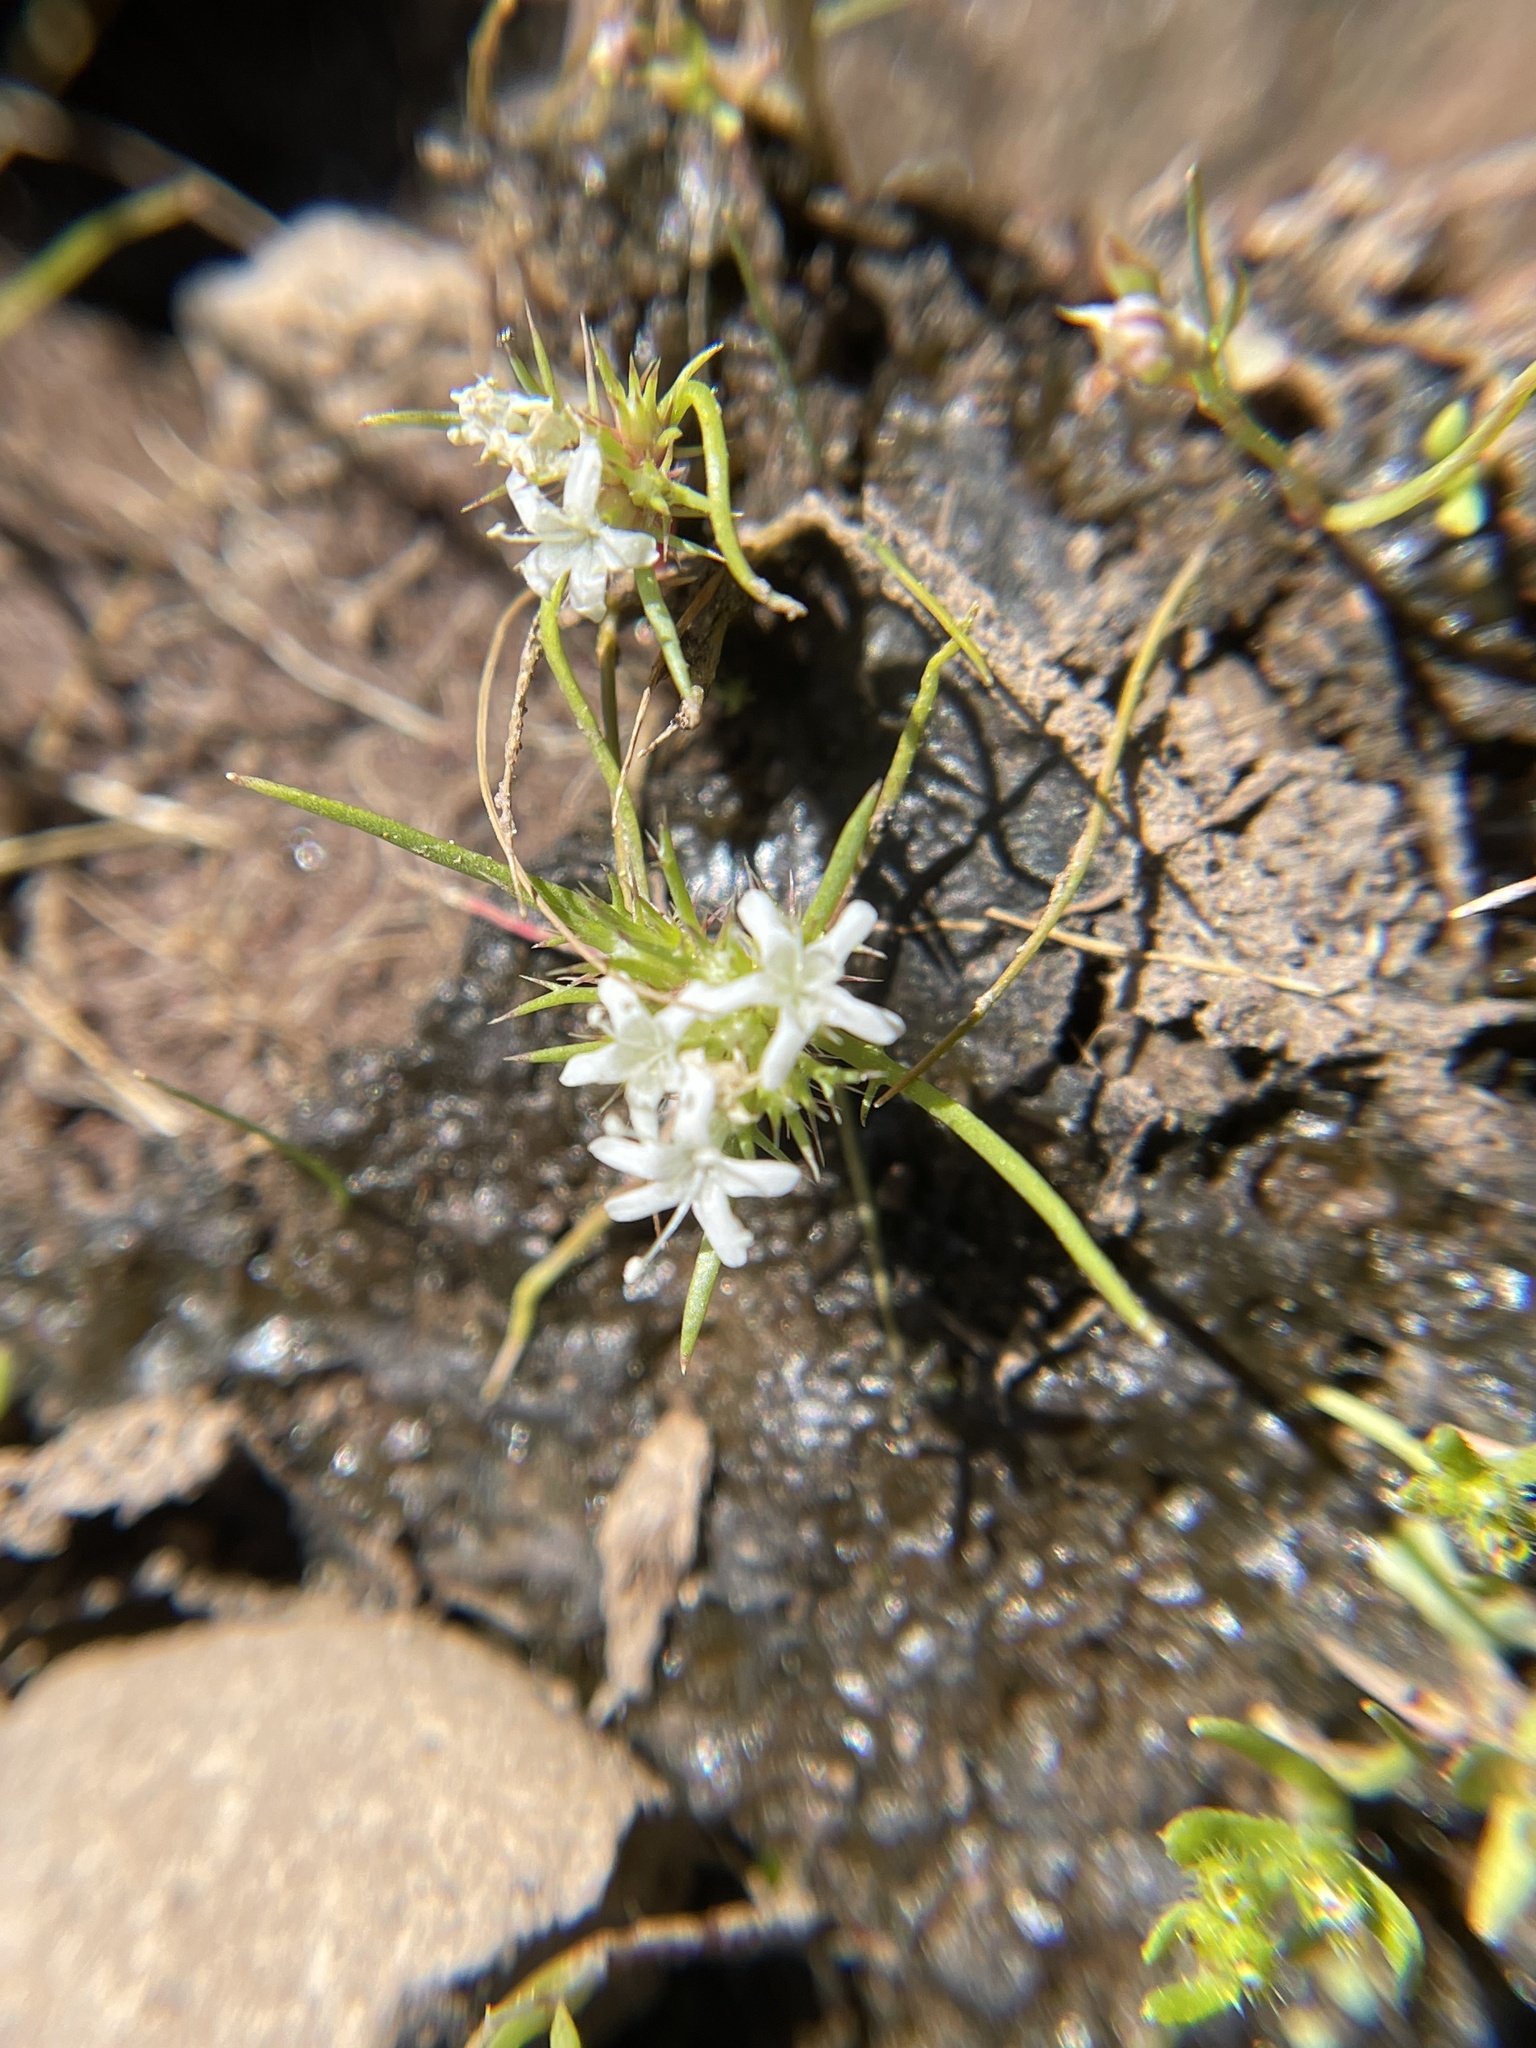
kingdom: Plantae
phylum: Tracheophyta
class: Magnoliopsida
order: Ericales
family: Polemoniaceae
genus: Navarretia
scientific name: Navarretia leucocephala
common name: White-flowered navarretia
